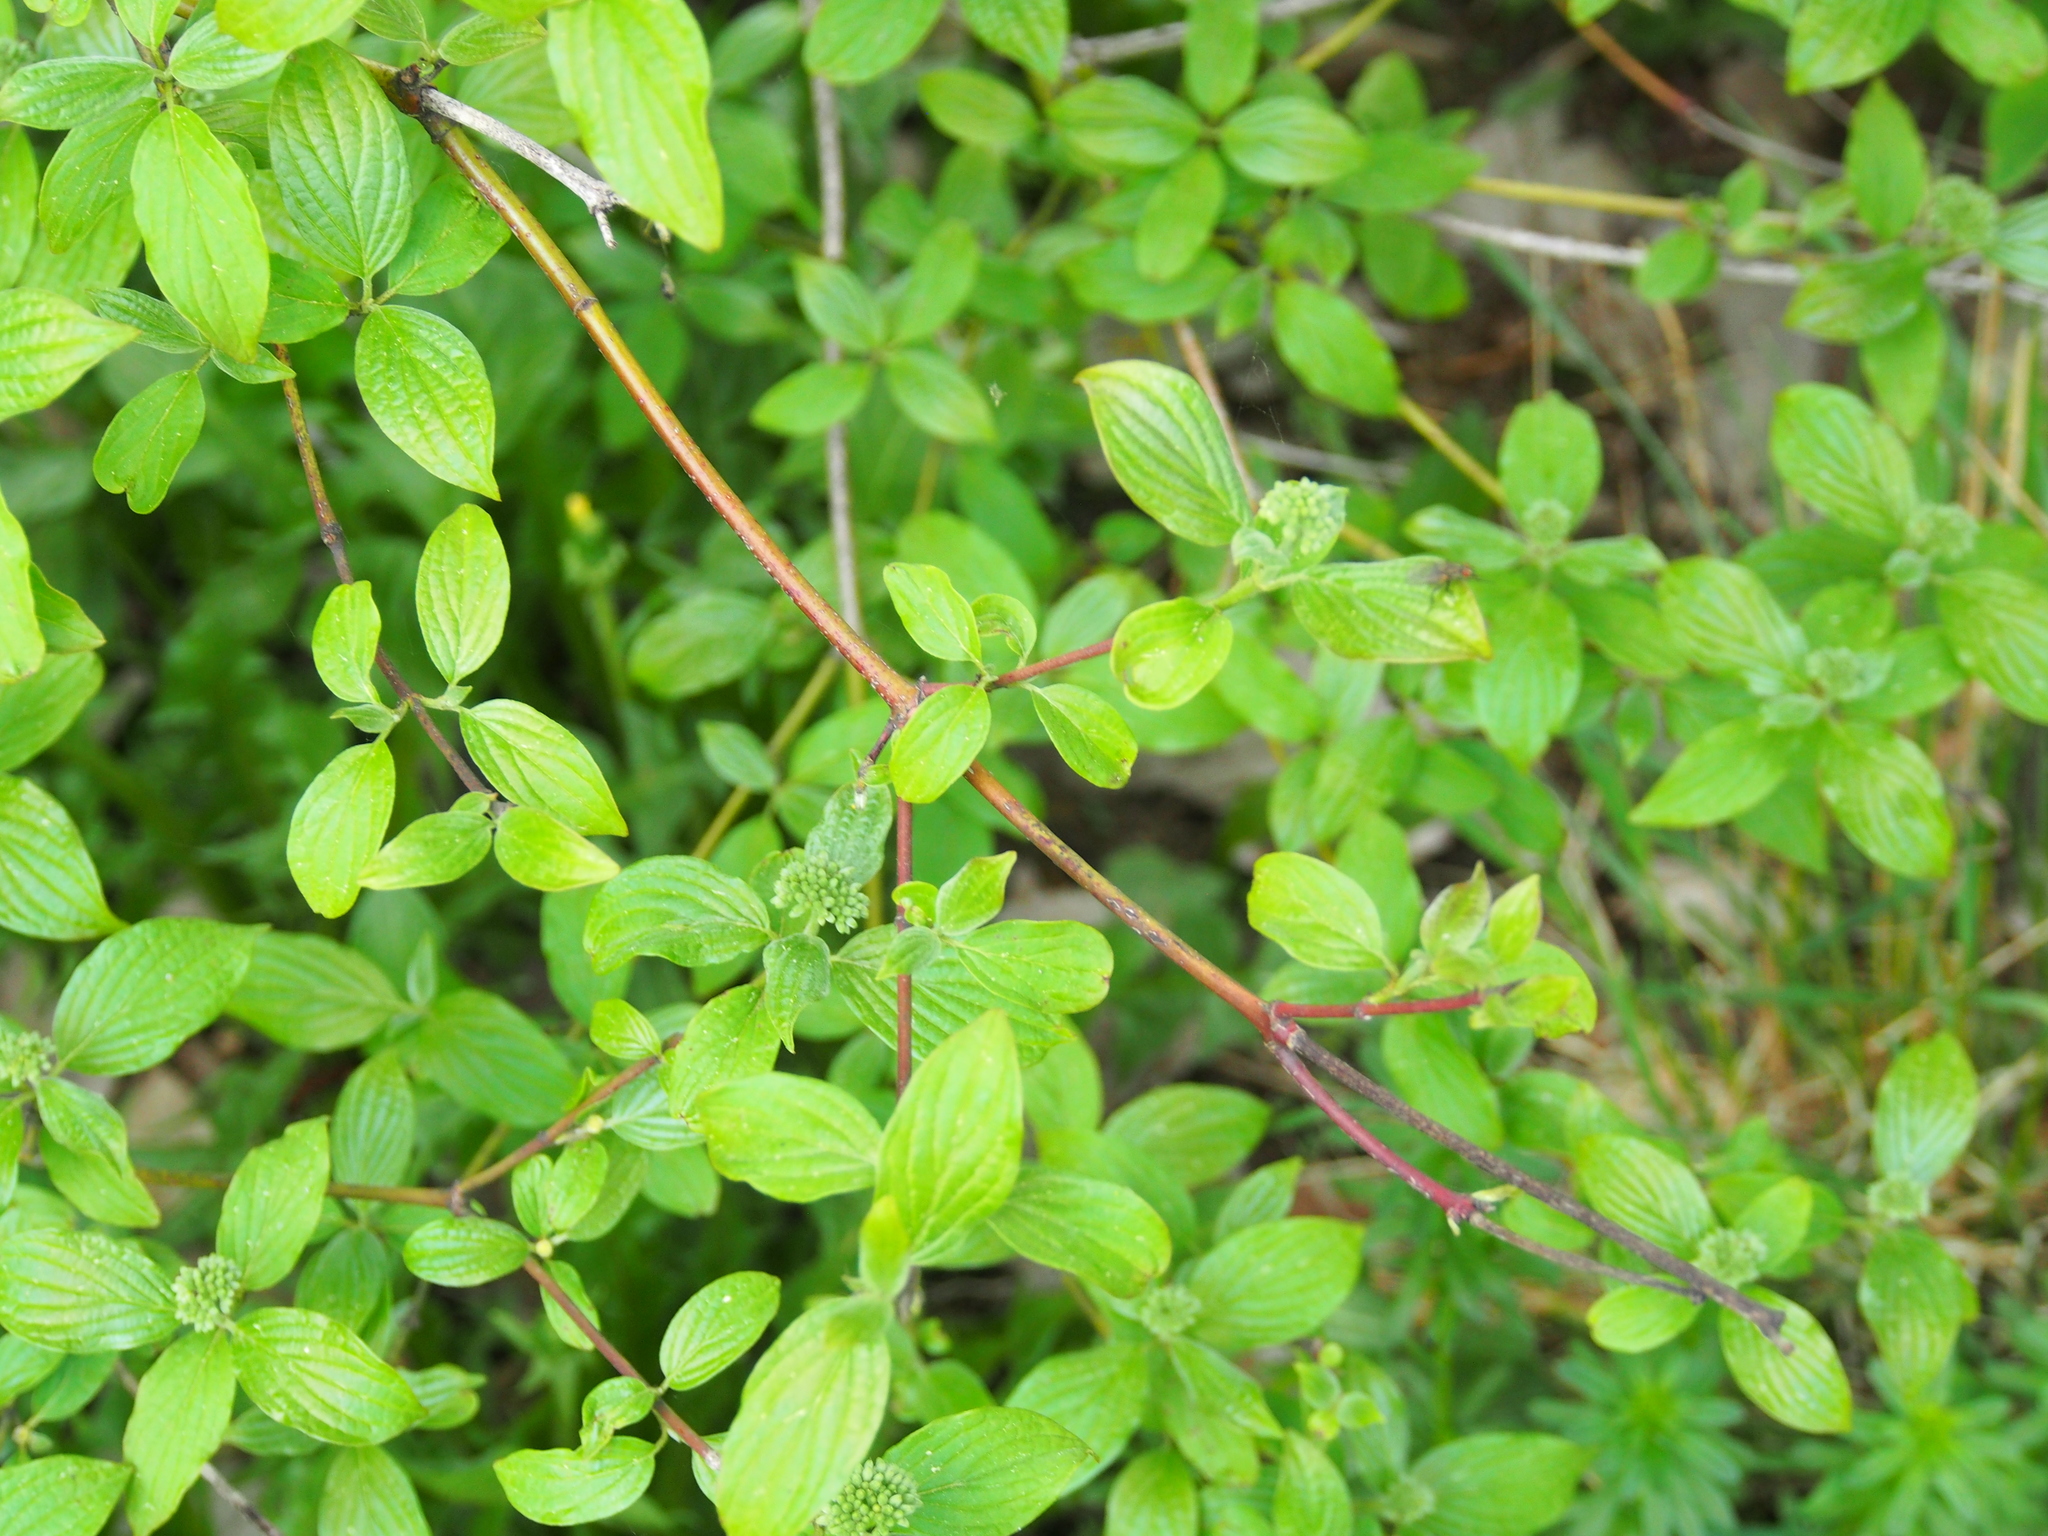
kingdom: Plantae
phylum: Tracheophyta
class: Magnoliopsida
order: Cornales
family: Cornaceae
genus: Cornus
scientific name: Cornus sanguinea
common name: Dogwood
